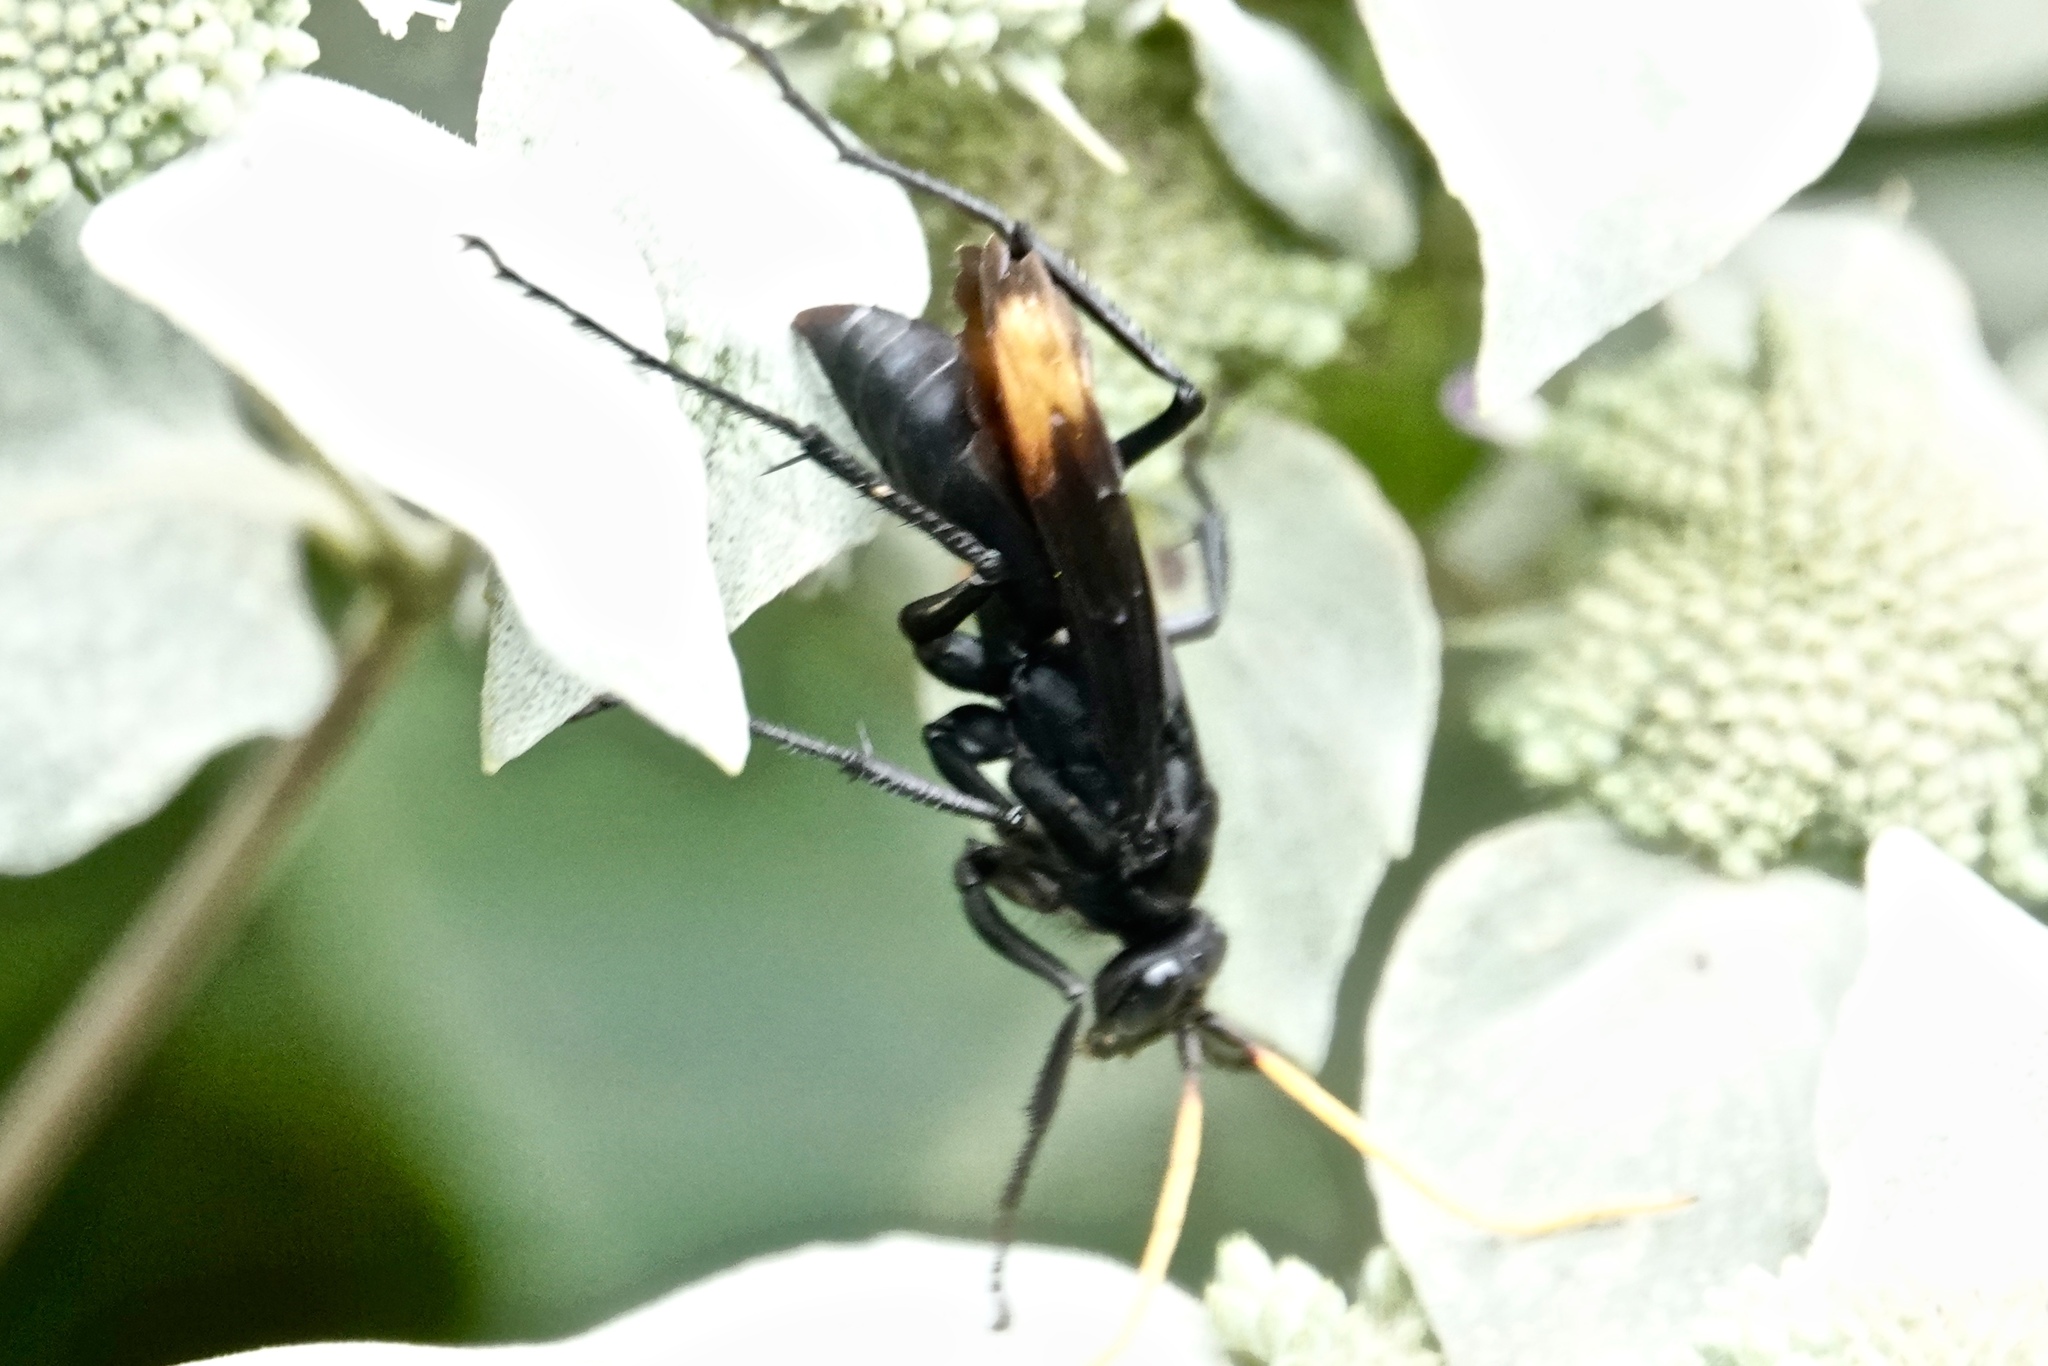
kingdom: Animalia
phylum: Arthropoda
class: Insecta
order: Hymenoptera
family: Pompilidae
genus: Entypus
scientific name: Entypus unifasciatus
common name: Eastern tawny-horned spider wasp
